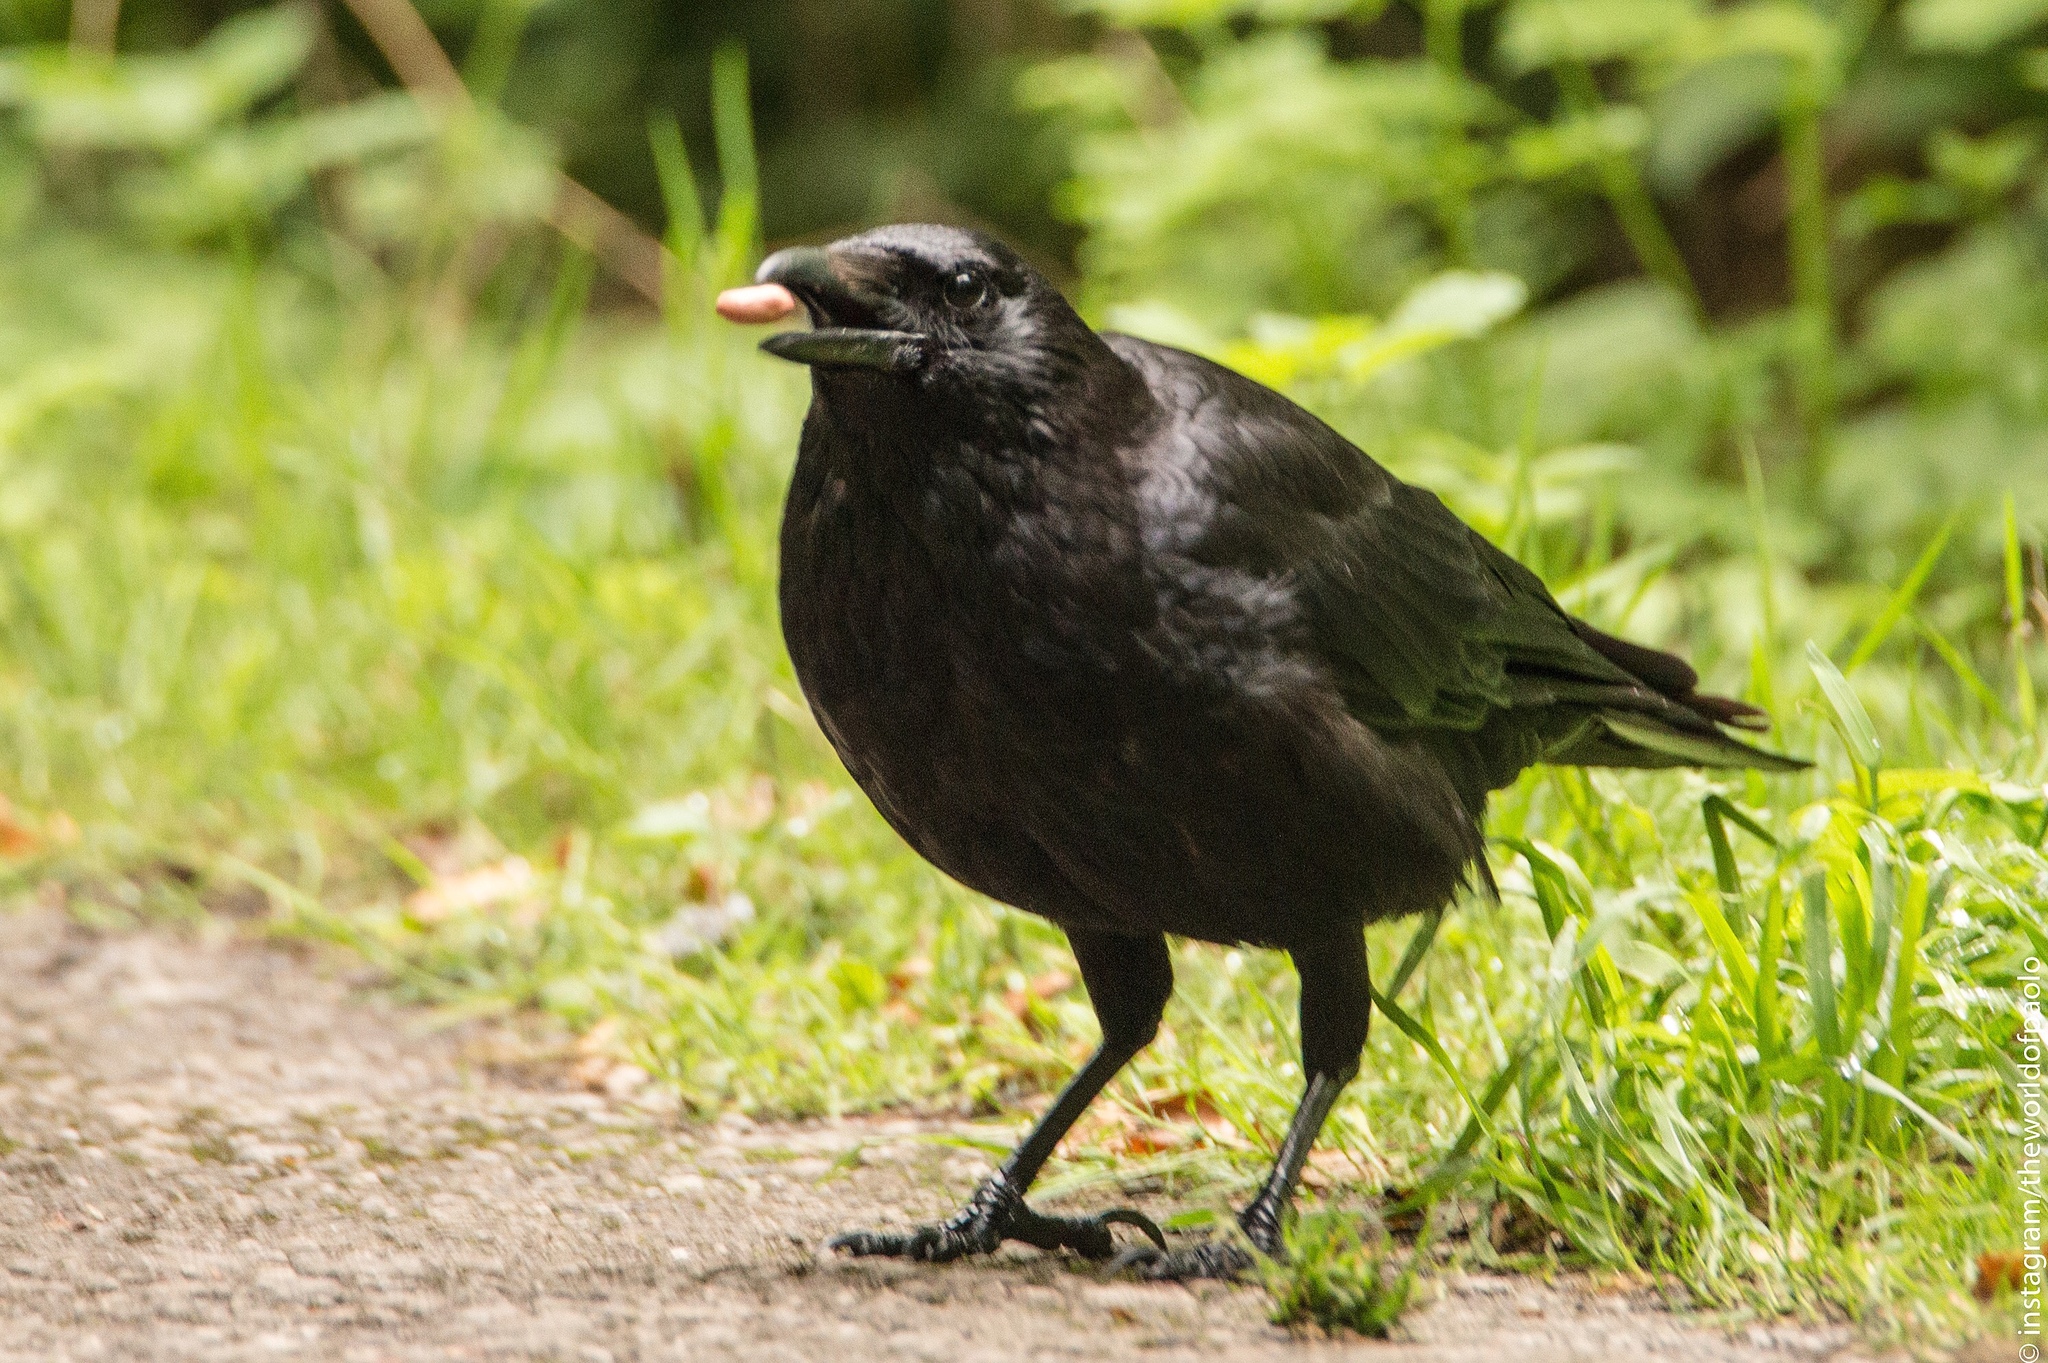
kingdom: Animalia
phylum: Chordata
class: Aves
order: Passeriformes
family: Corvidae
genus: Corvus
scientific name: Corvus corone
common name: Carrion crow
